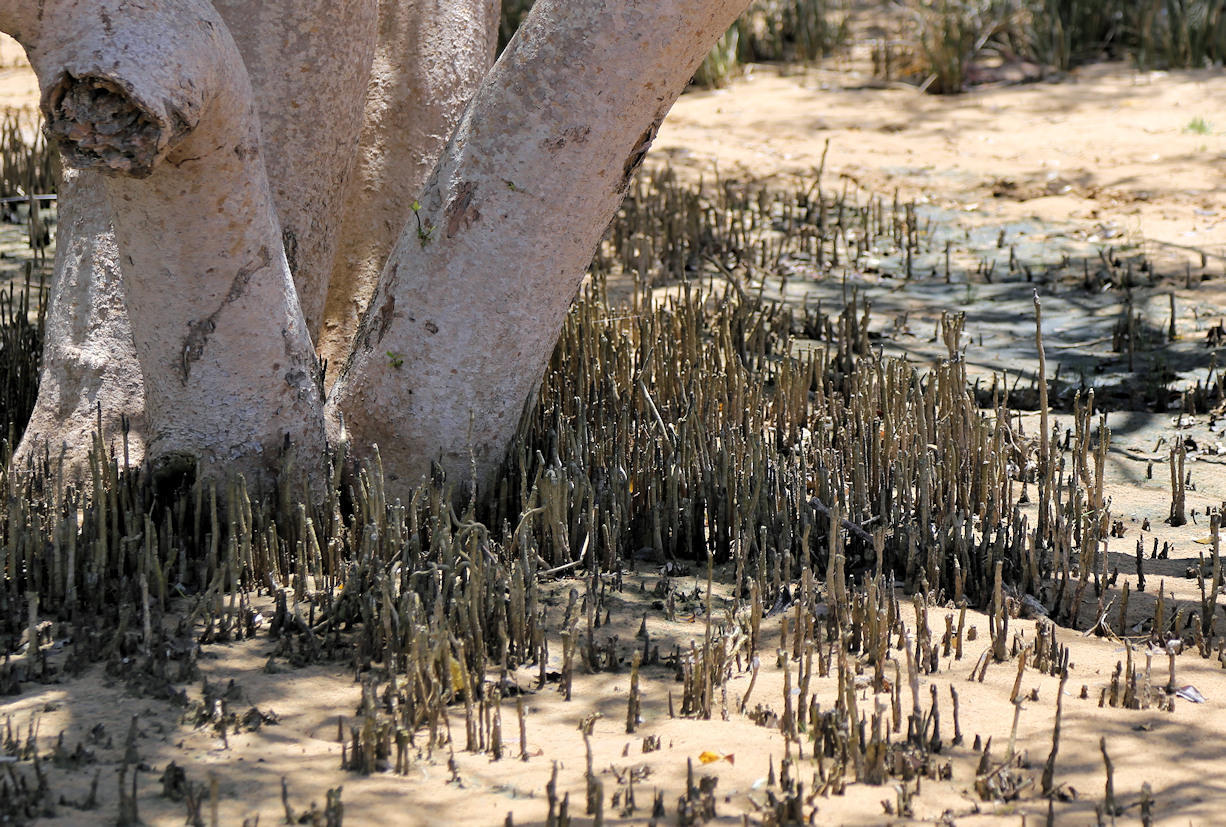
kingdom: Plantae
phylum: Tracheophyta
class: Magnoliopsida
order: Lamiales
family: Acanthaceae
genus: Avicennia
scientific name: Avicennia marina
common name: Gray mangrove
